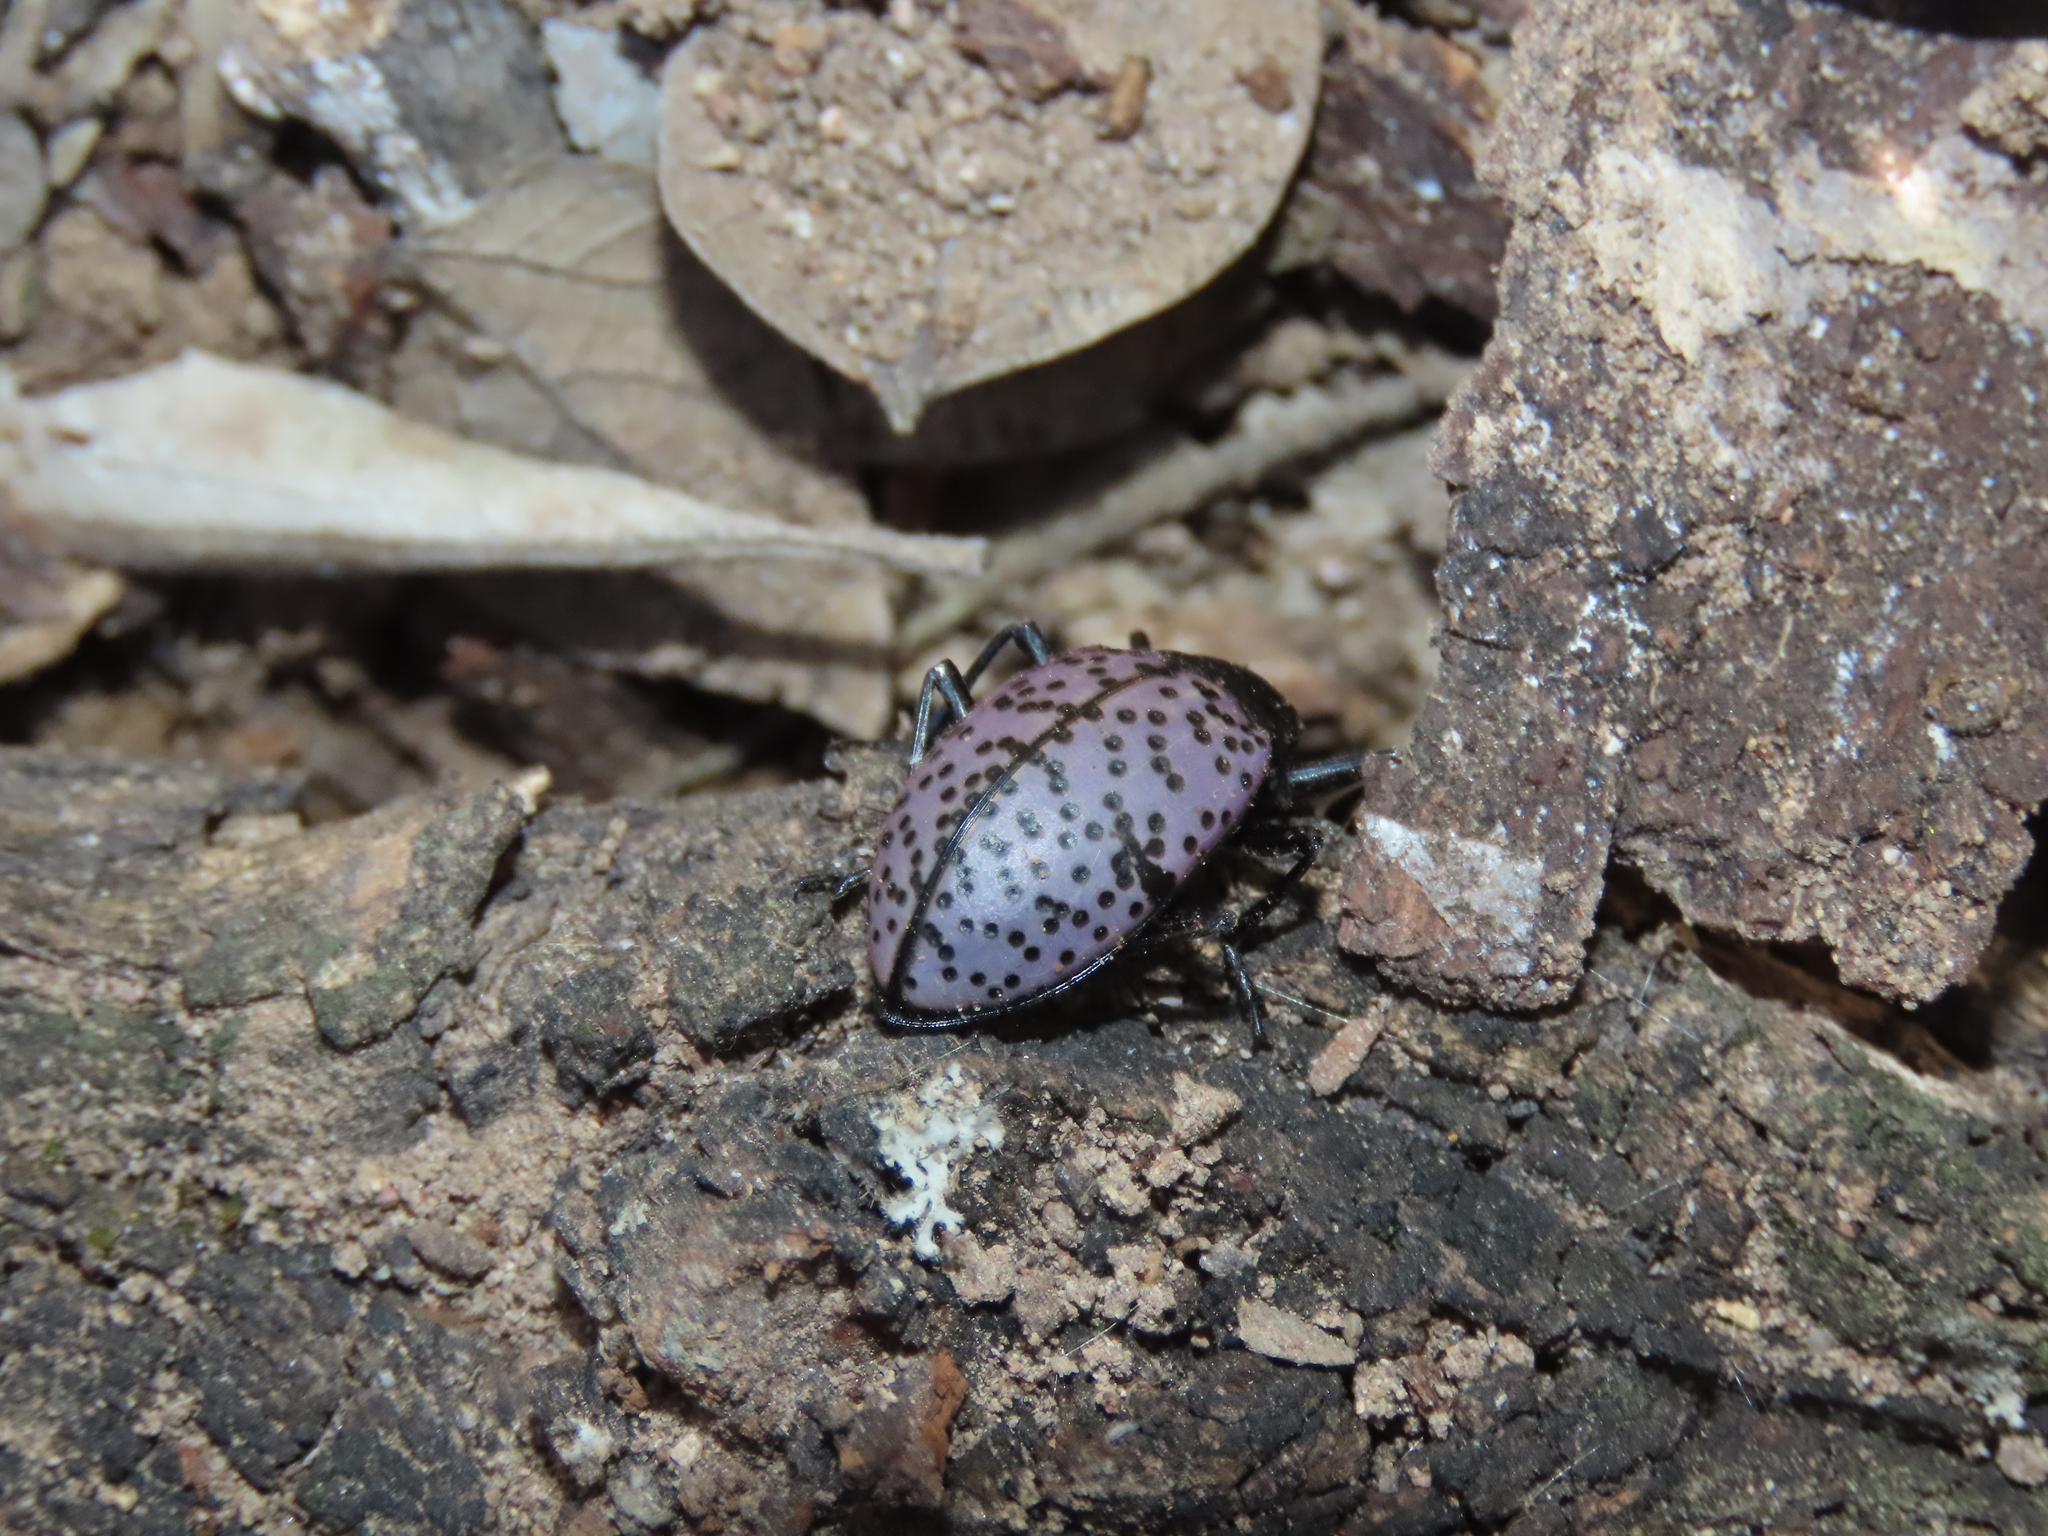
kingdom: Animalia
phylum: Arthropoda
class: Insecta
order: Coleoptera
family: Erotylidae
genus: Gibbifer
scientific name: Gibbifer californicus
